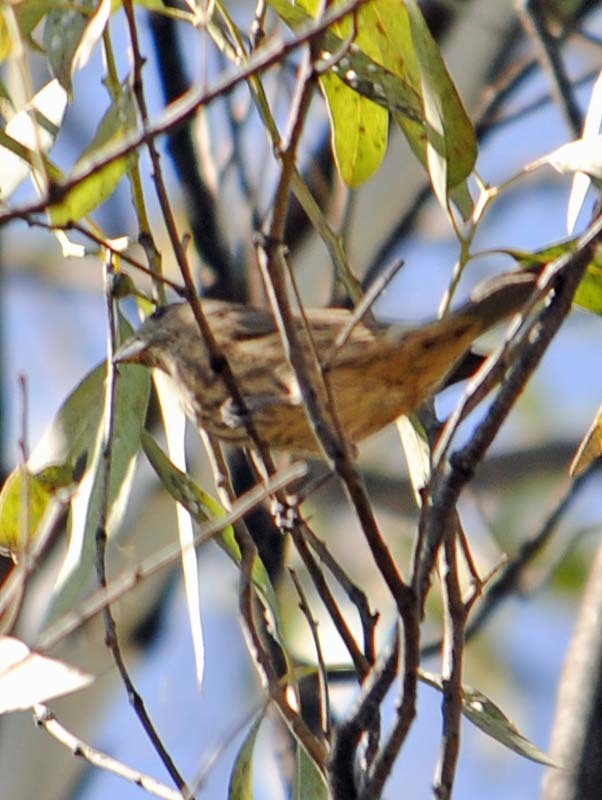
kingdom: Animalia
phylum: Chordata
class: Aves
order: Passeriformes
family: Fringillidae
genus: Haemorhous
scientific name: Haemorhous mexicanus
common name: House finch
